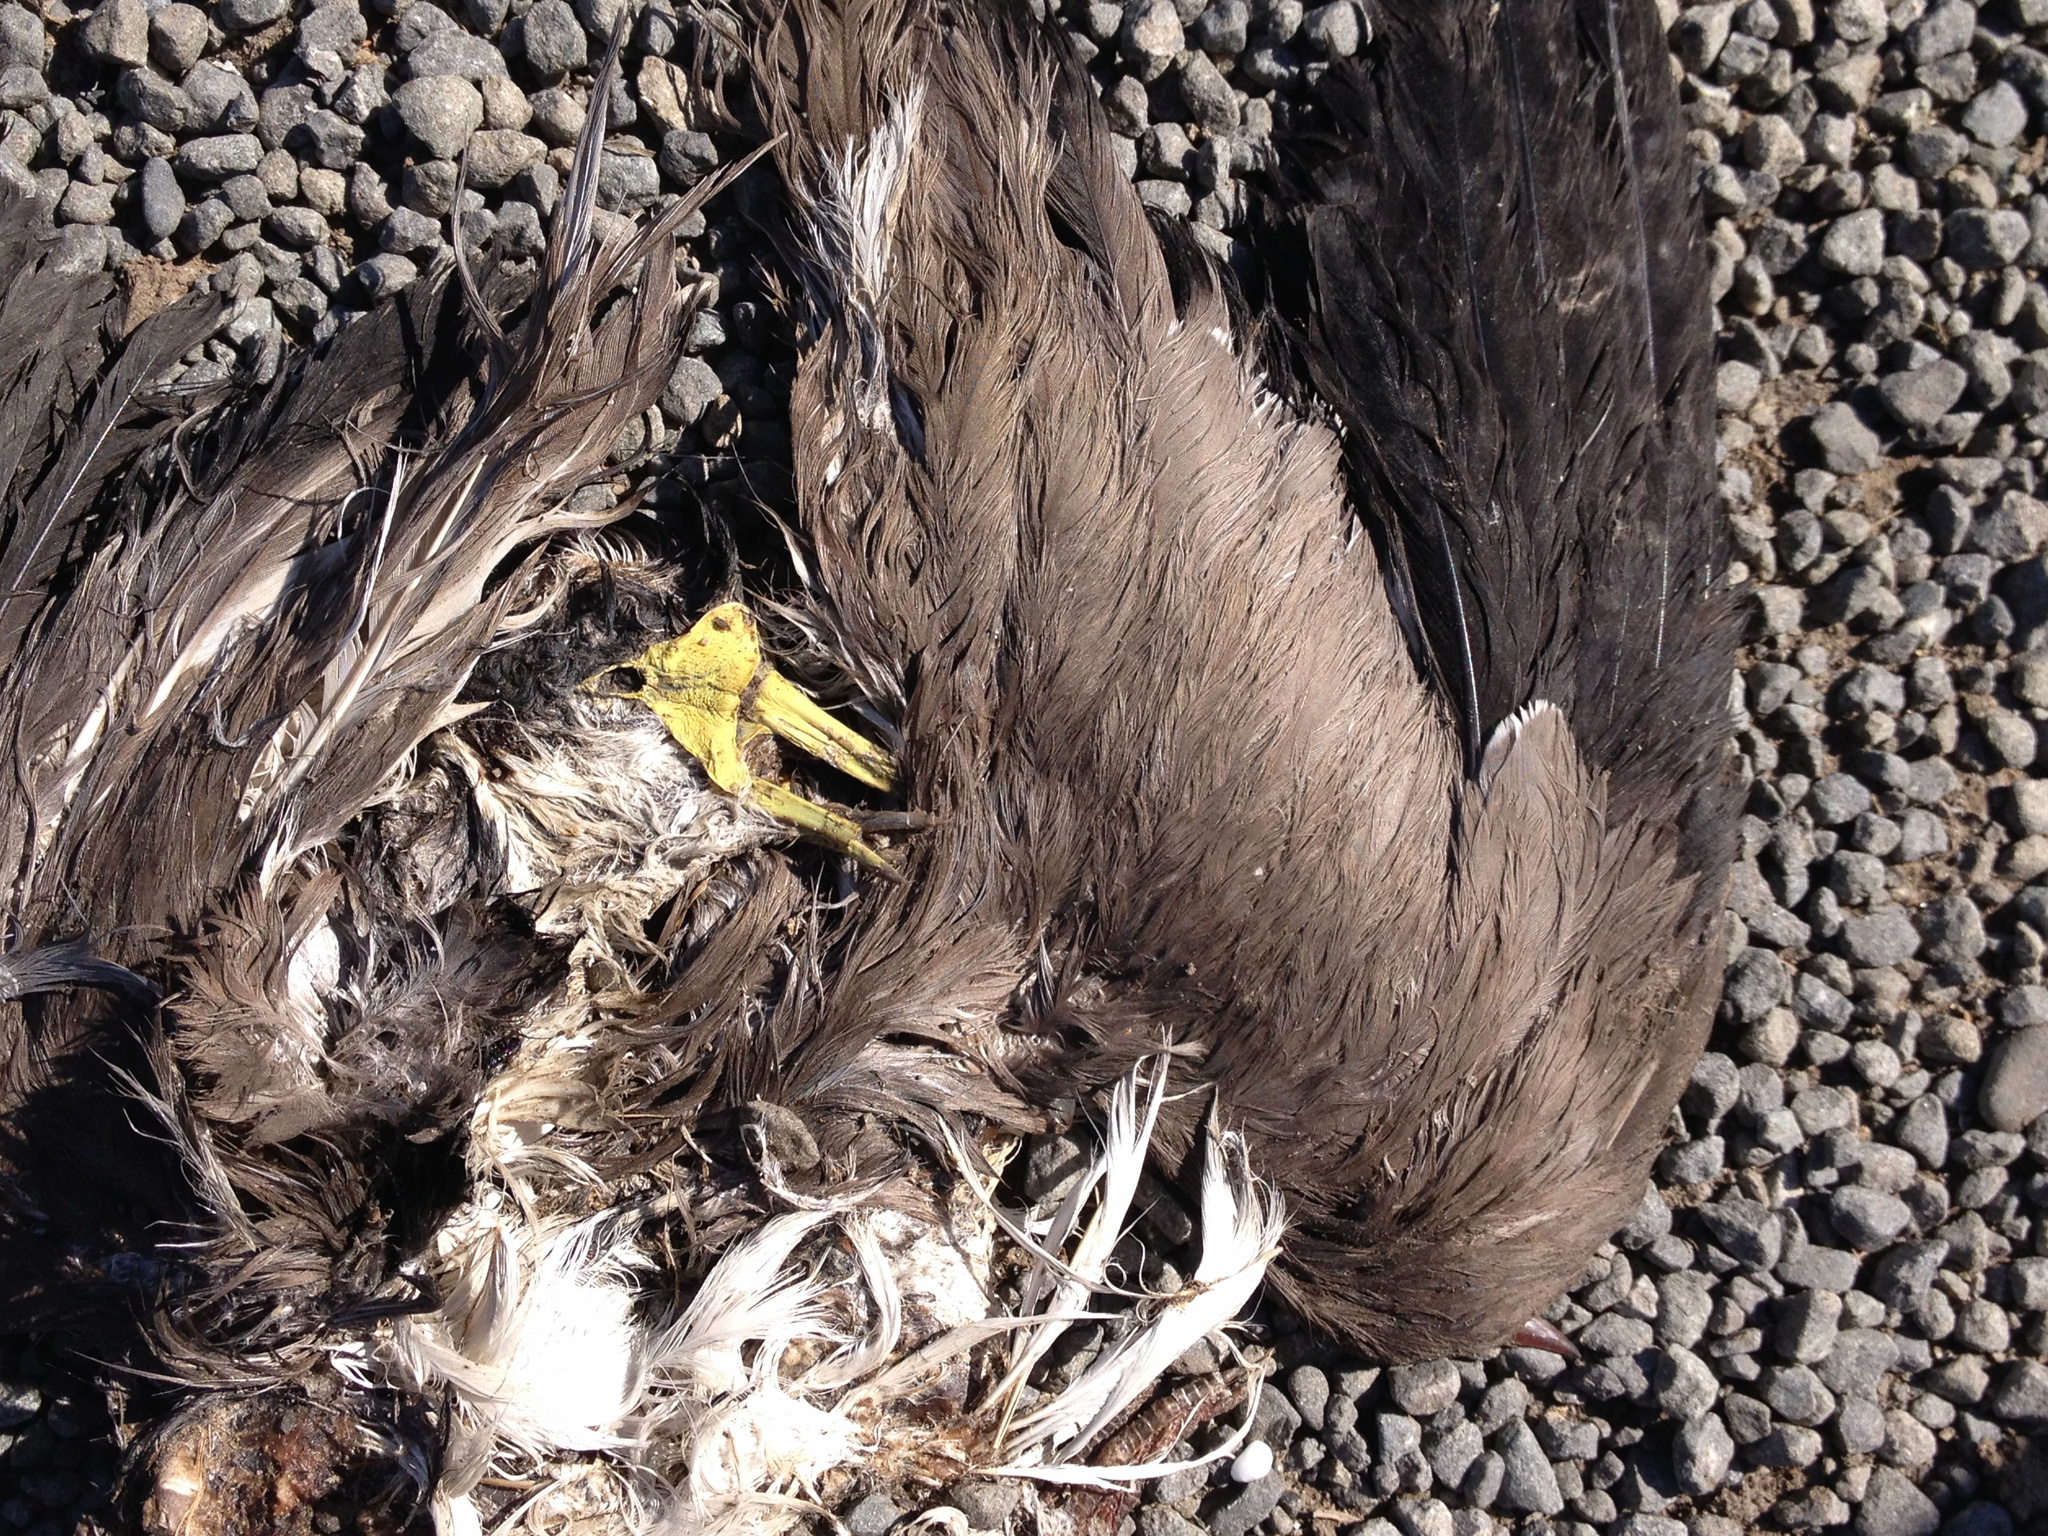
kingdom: Animalia
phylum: Chordata
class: Aves
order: Charadriiformes
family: Charadriidae
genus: Vanellus
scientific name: Vanellus miles
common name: Masked lapwing
